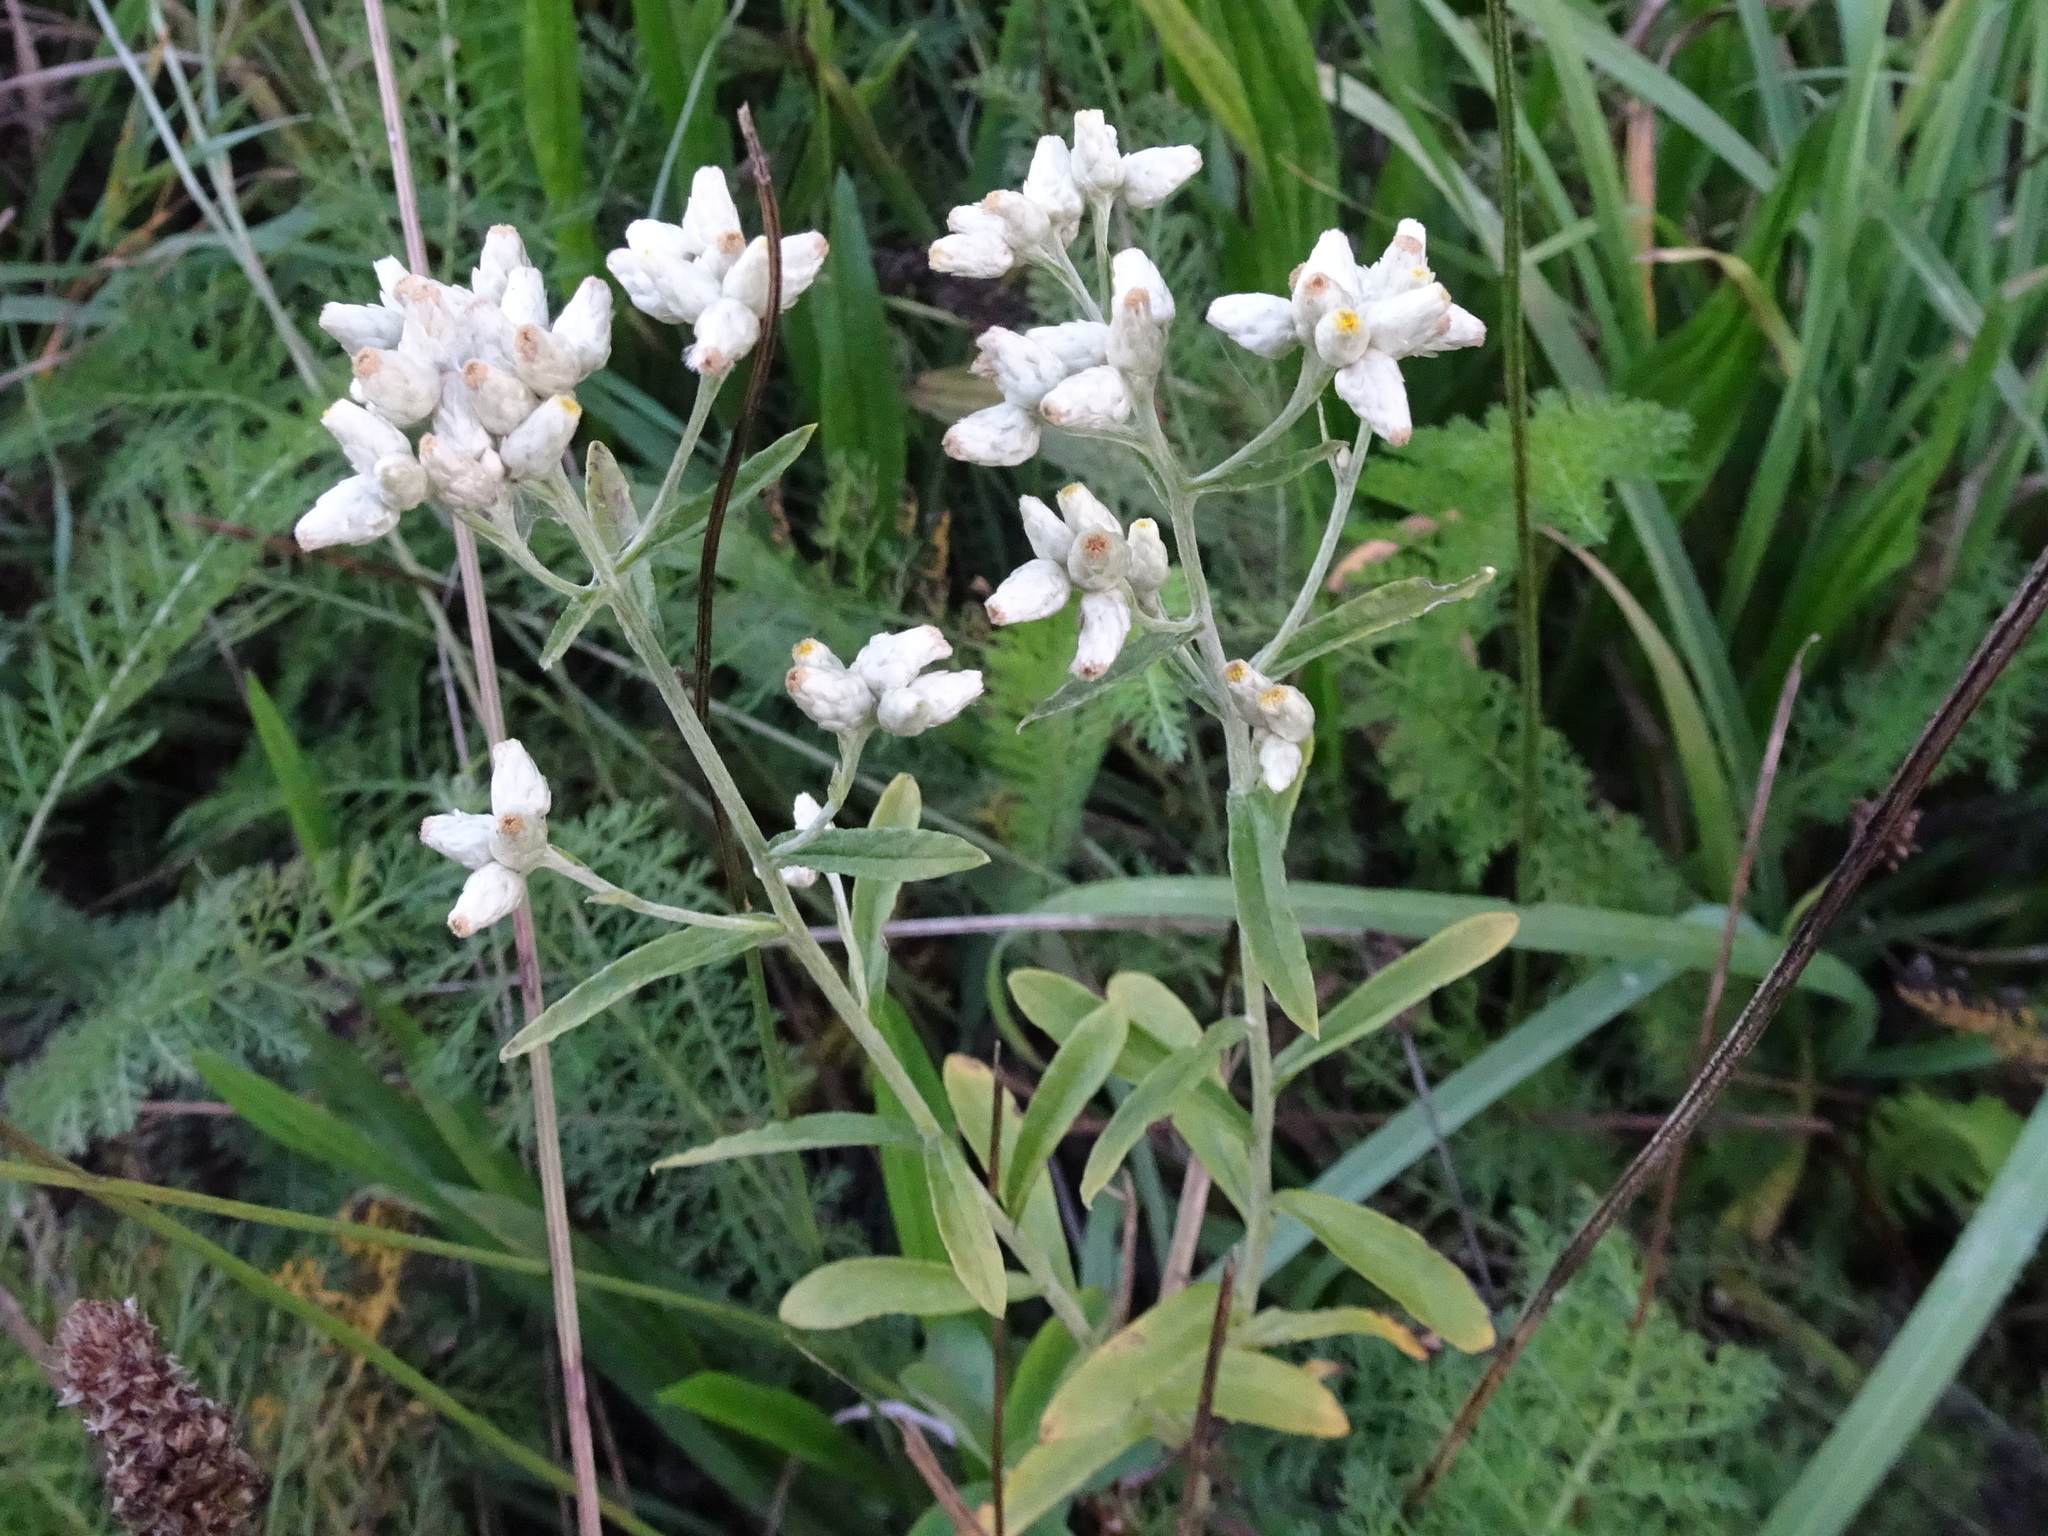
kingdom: Plantae
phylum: Tracheophyta
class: Magnoliopsida
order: Asterales
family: Asteraceae
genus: Pseudognaphalium
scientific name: Pseudognaphalium obtusifolium
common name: Eastern rabbit-tobacco
